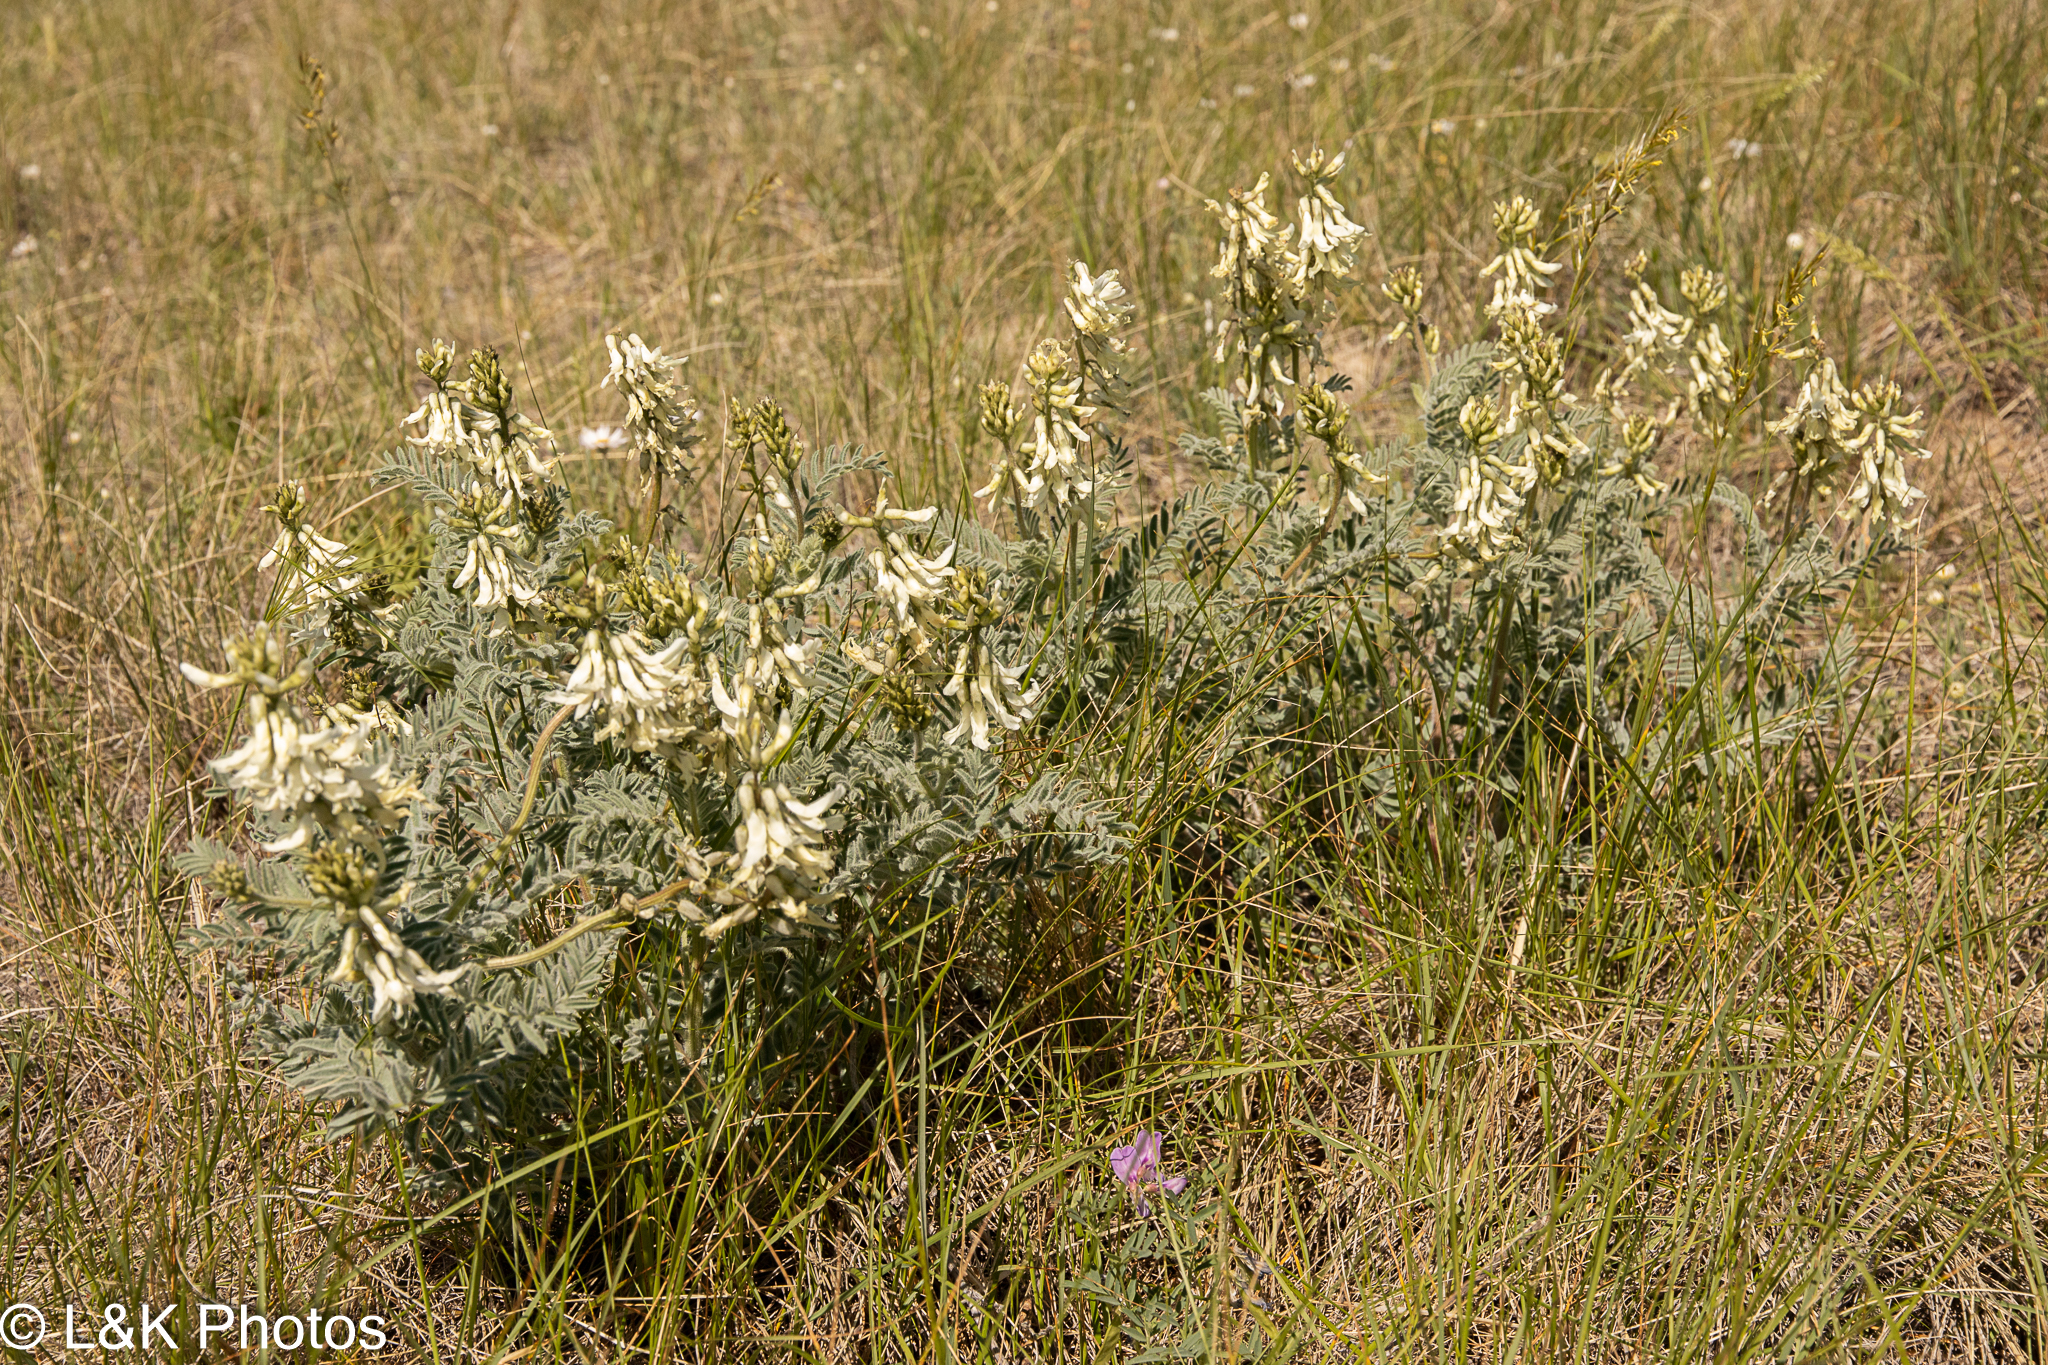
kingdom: Plantae
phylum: Tracheophyta
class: Magnoliopsida
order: Fabales
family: Fabaceae
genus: Astragalus
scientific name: Astragalus drummondii
